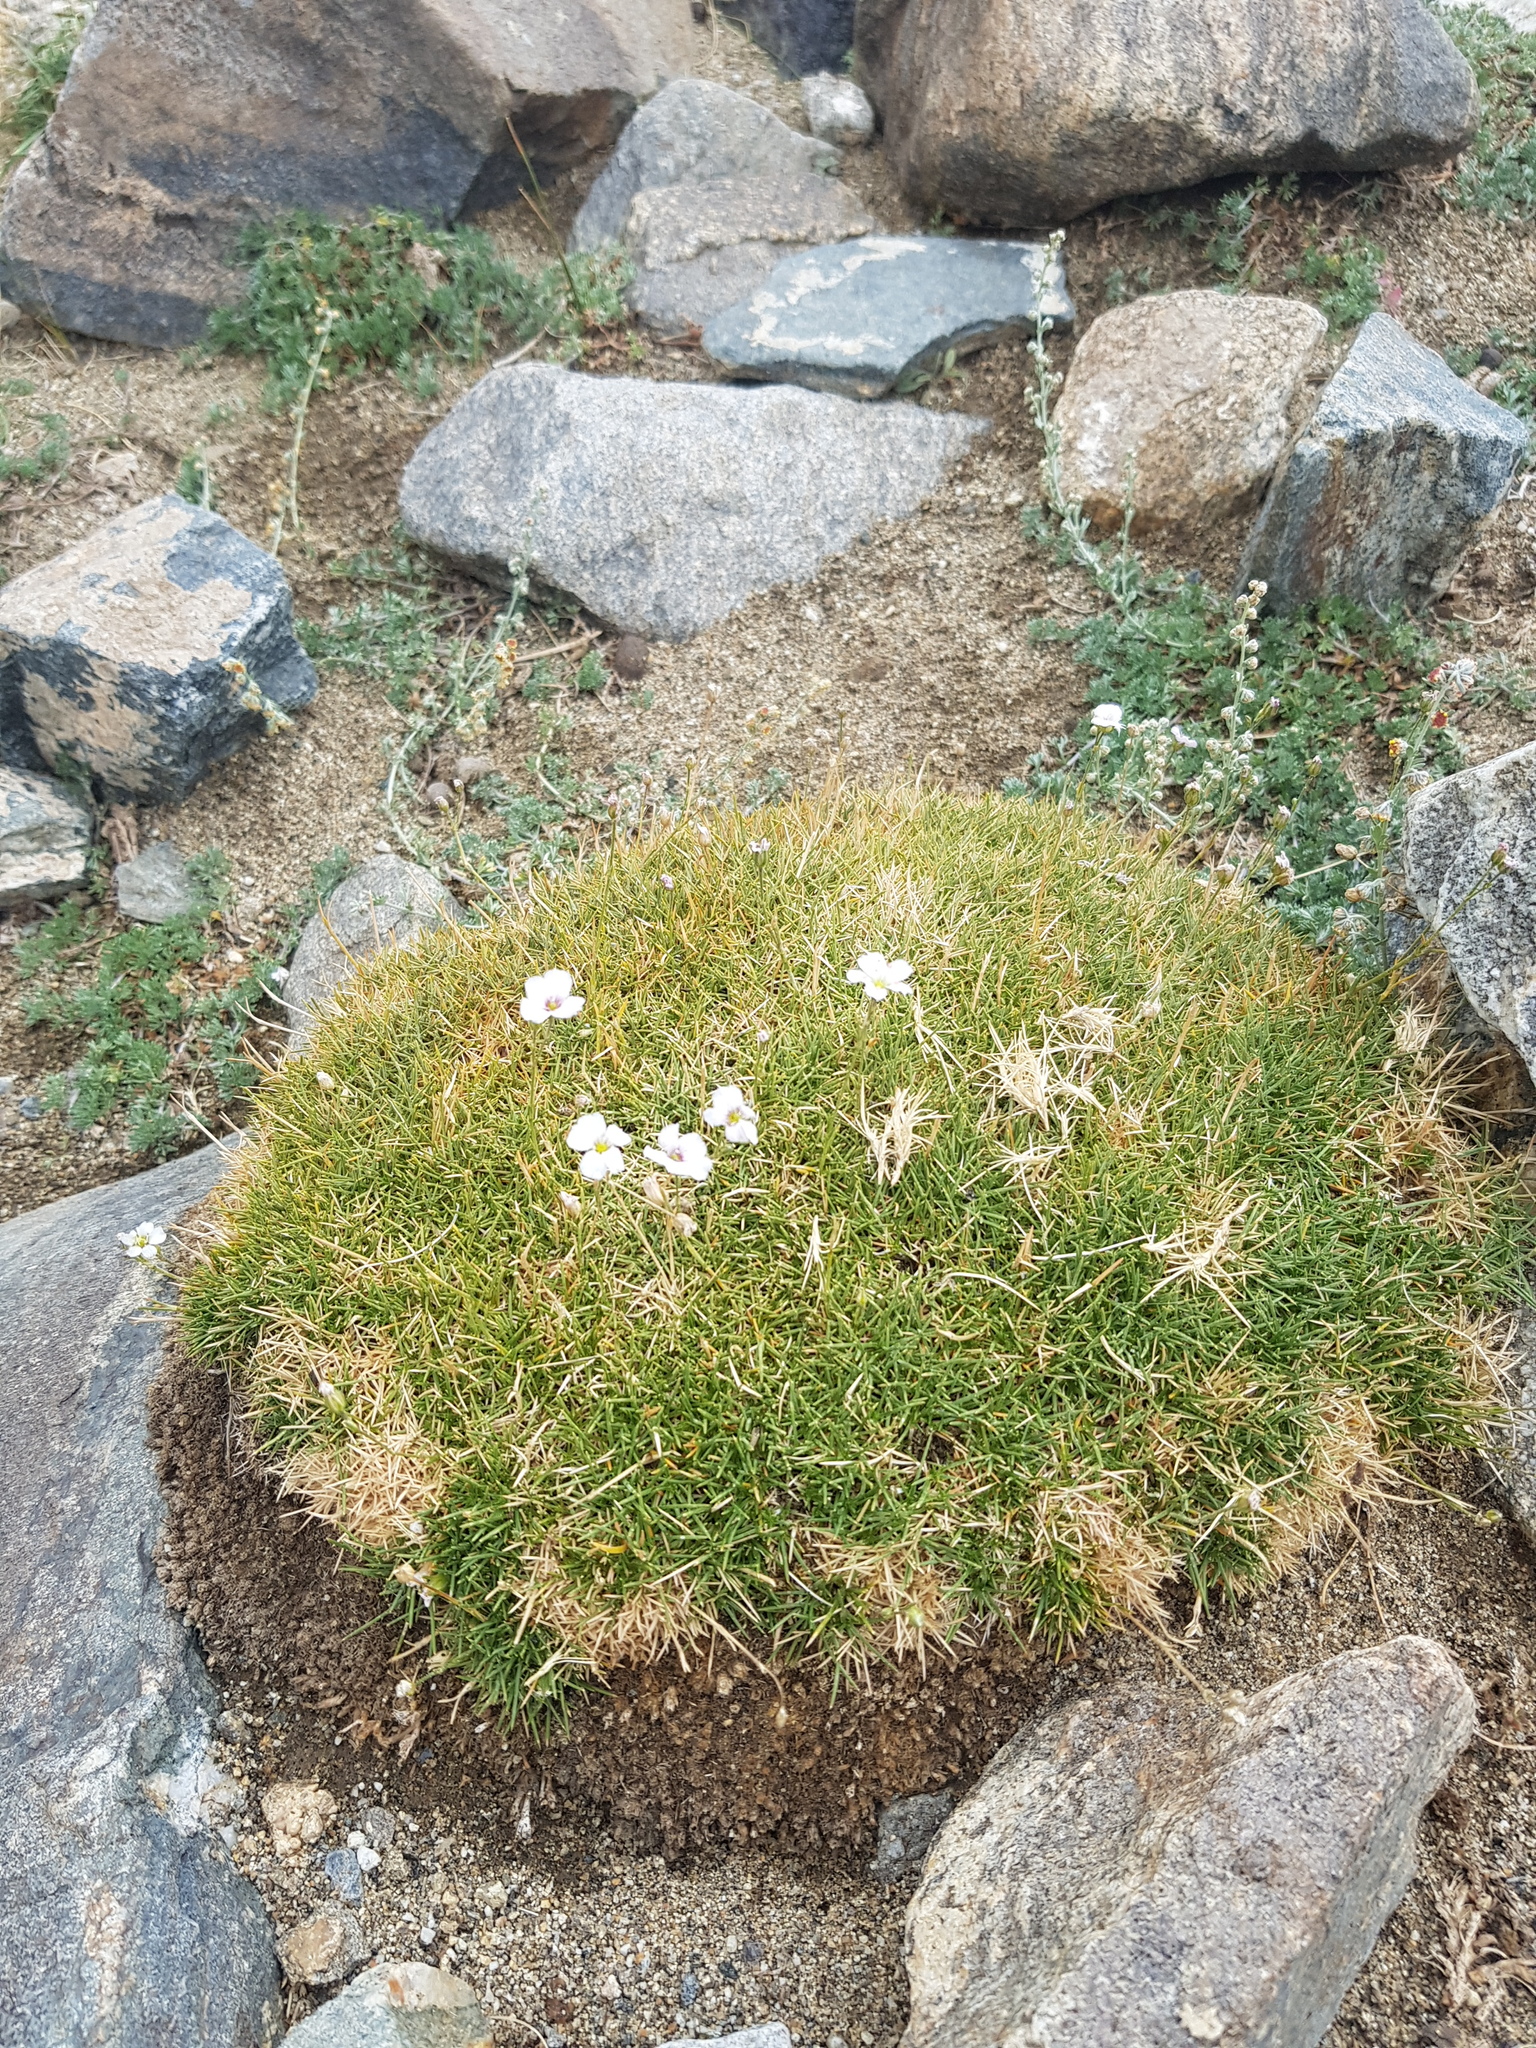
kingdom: Plantae
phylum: Tracheophyta
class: Magnoliopsida
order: Caryophyllales
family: Caryophyllaceae
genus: Eremogone
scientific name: Eremogone meyeri
